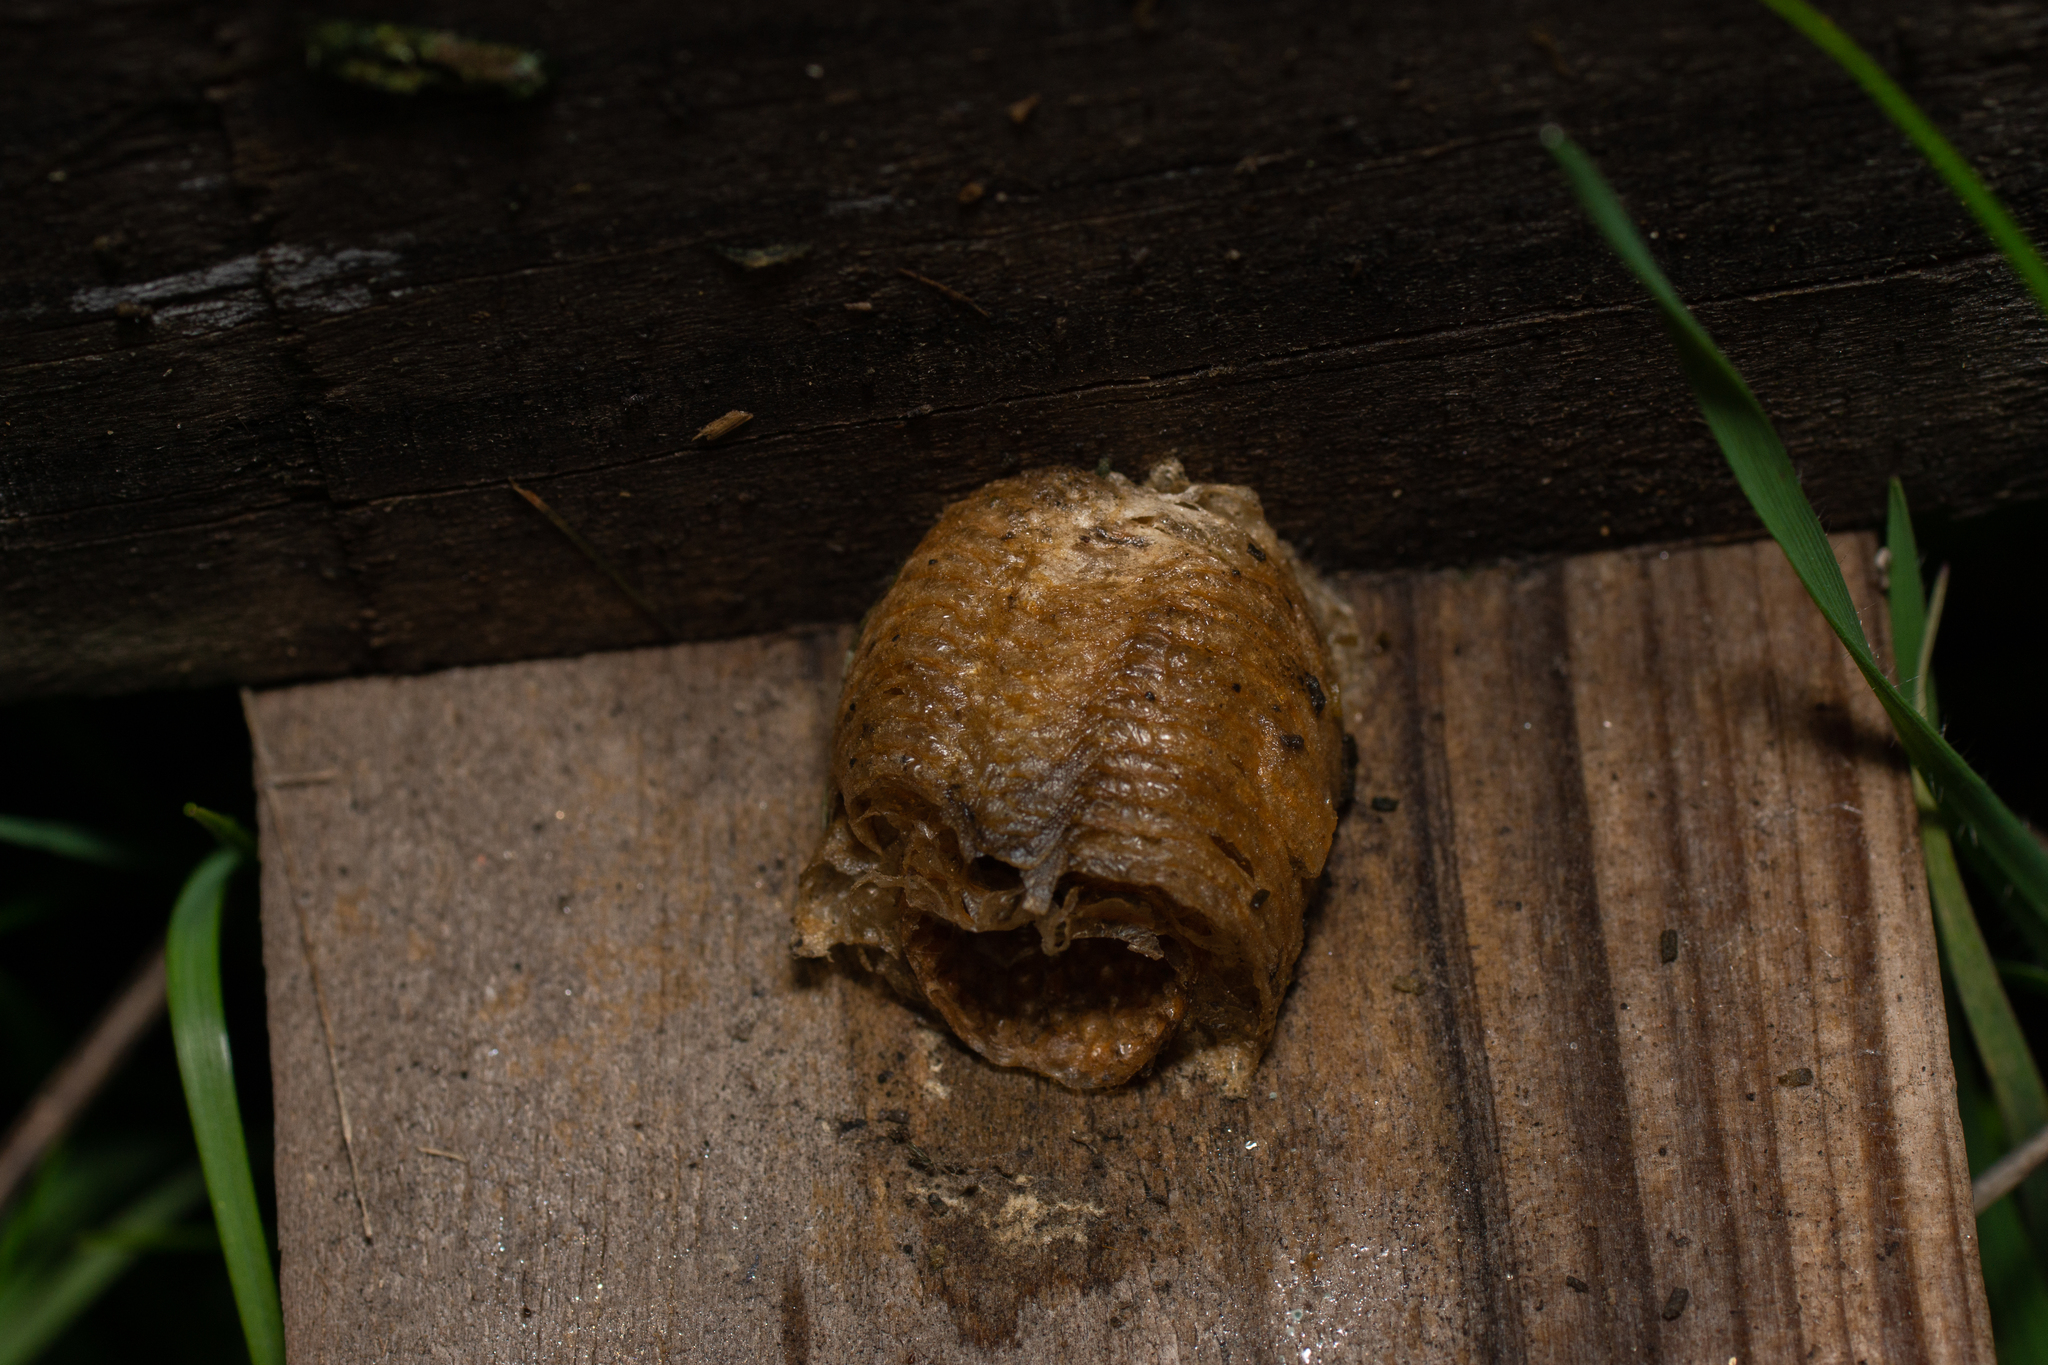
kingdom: Animalia
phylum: Arthropoda
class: Insecta
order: Mantodea
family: Mantidae
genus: Sphodromantis
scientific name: Sphodromantis viridis
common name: Giant african mantis
